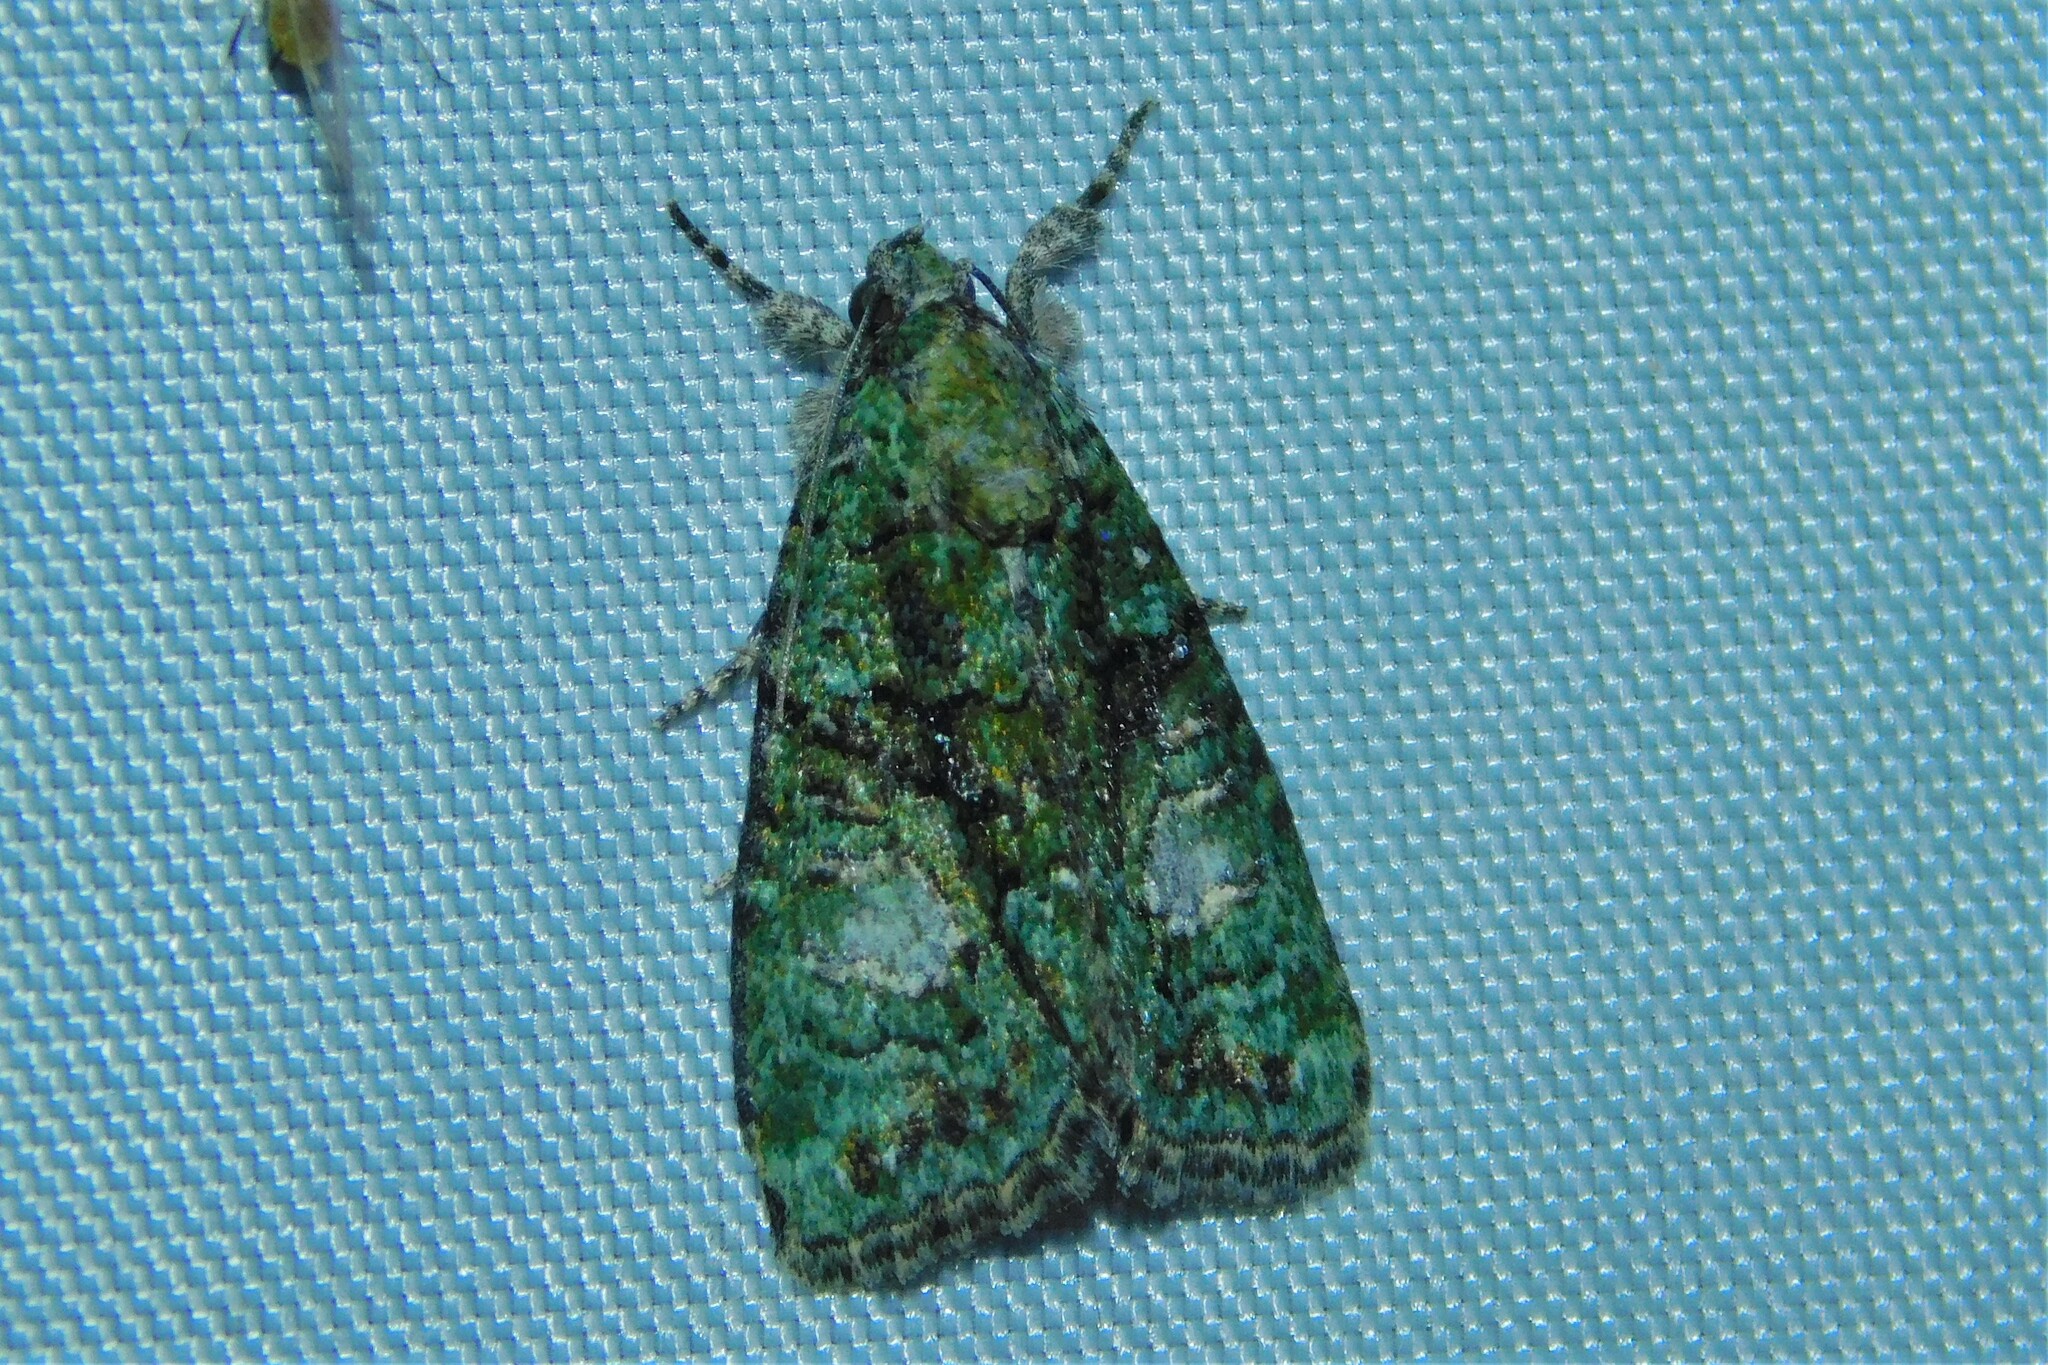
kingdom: Animalia
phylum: Arthropoda
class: Insecta
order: Lepidoptera
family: Noctuidae
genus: Cryphia
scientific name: Cryphia algae
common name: Tree-lichen beauty
